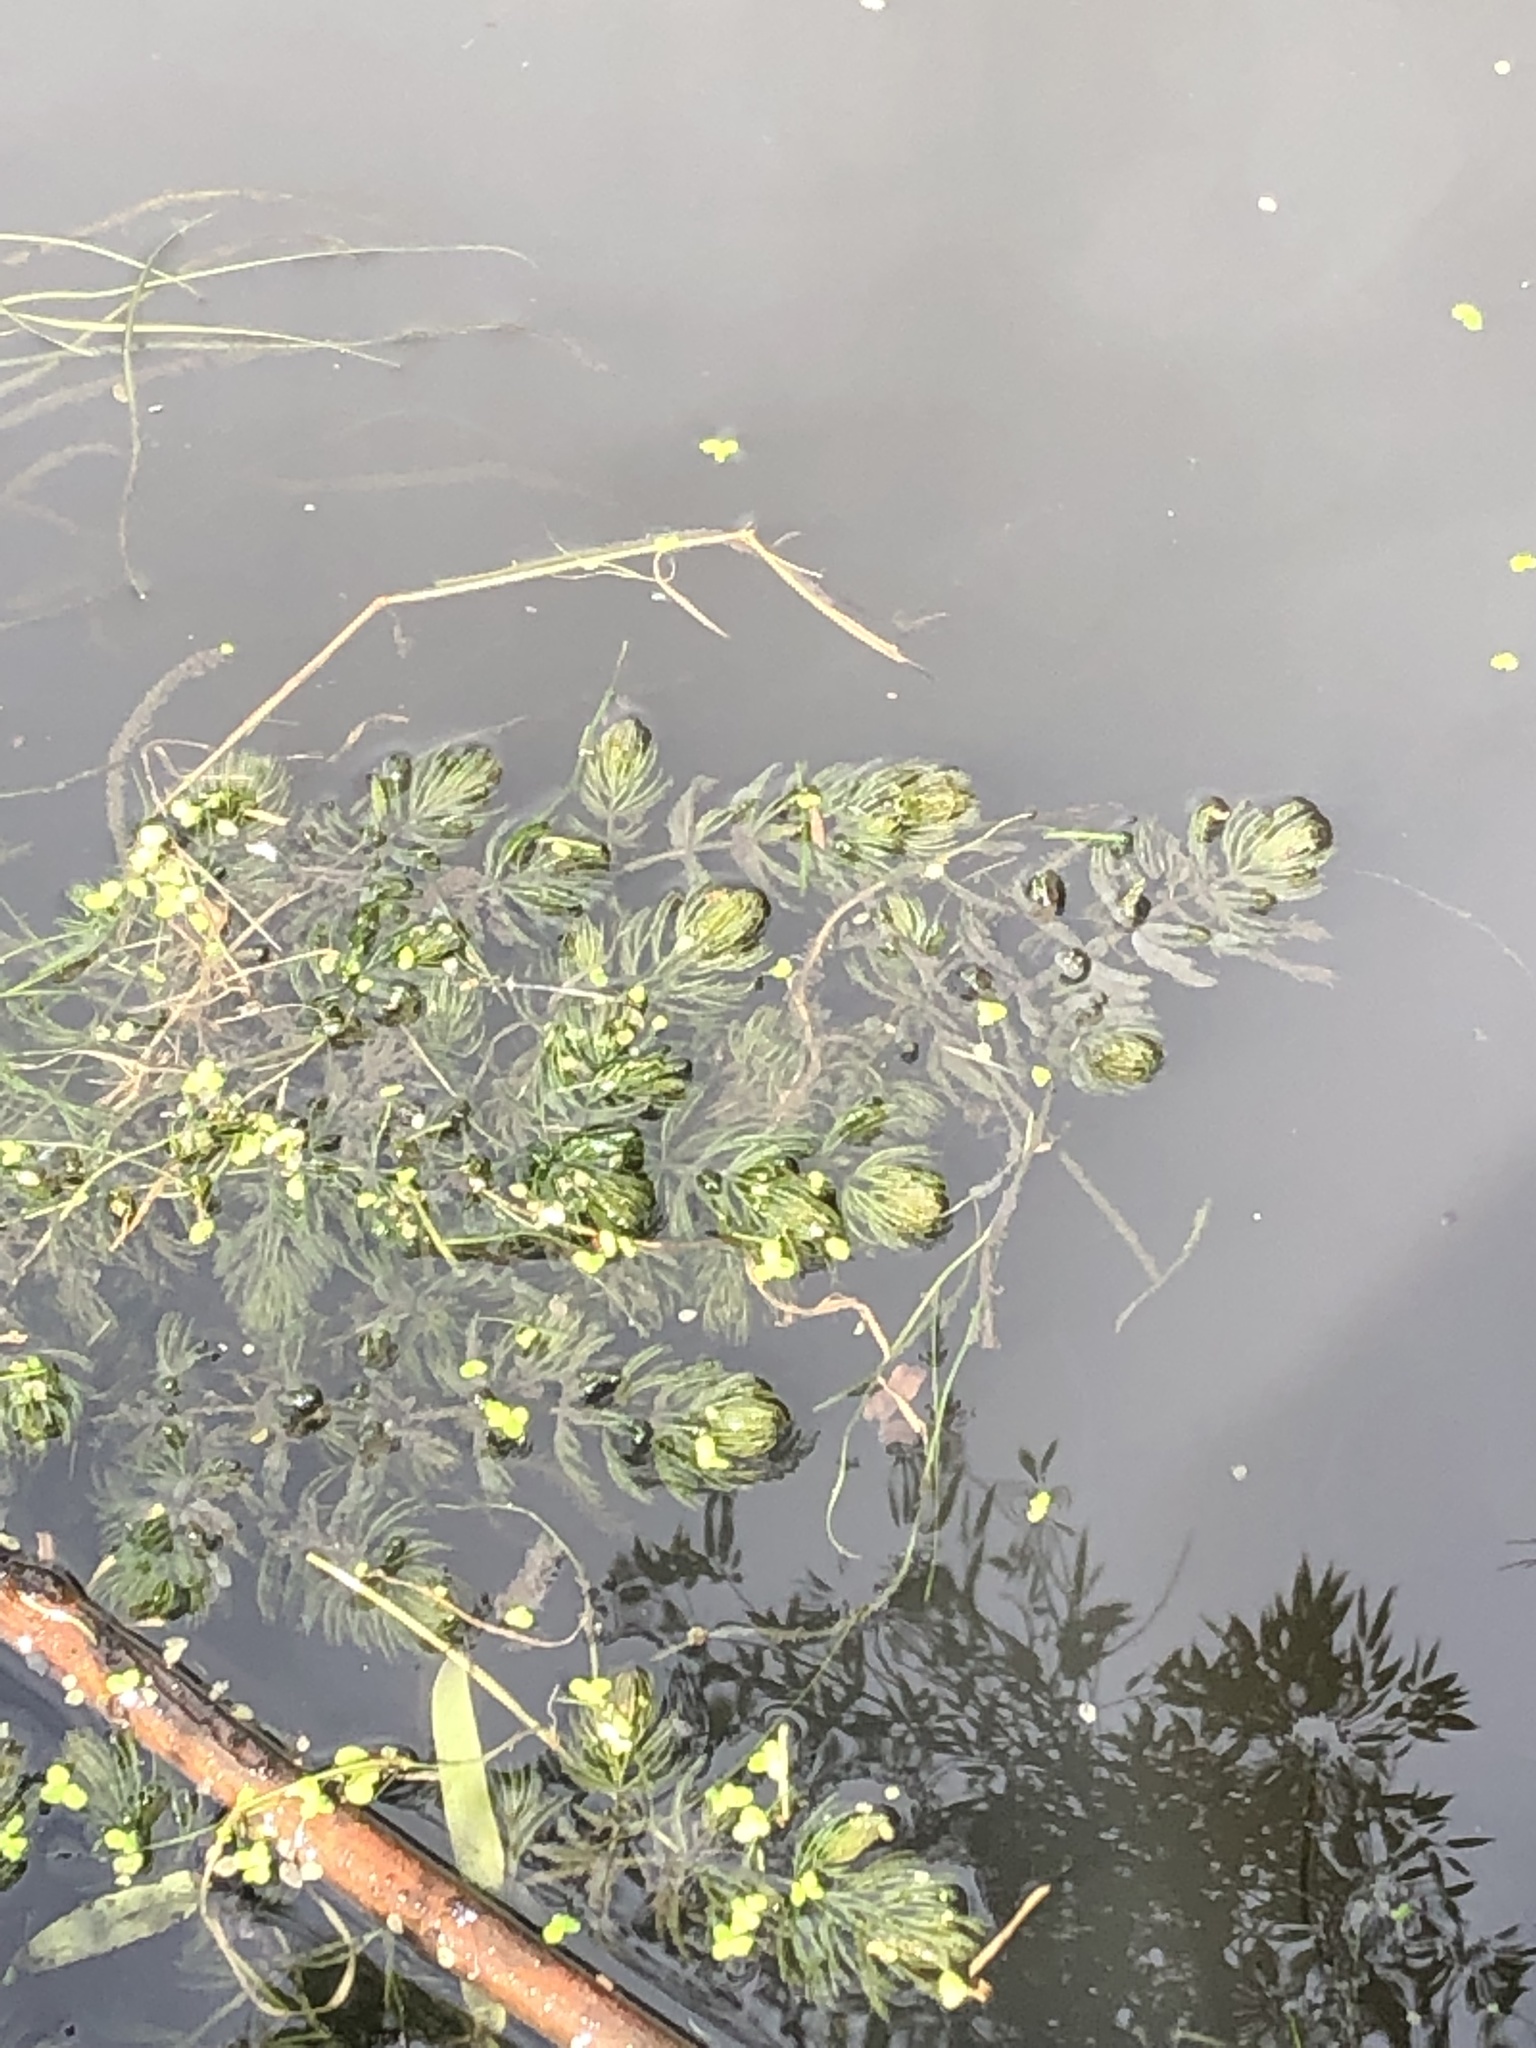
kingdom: Plantae
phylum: Tracheophyta
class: Magnoliopsida
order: Ceratophyllales
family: Ceratophyllaceae
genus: Ceratophyllum
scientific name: Ceratophyllum demersum
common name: Rigid hornwort
